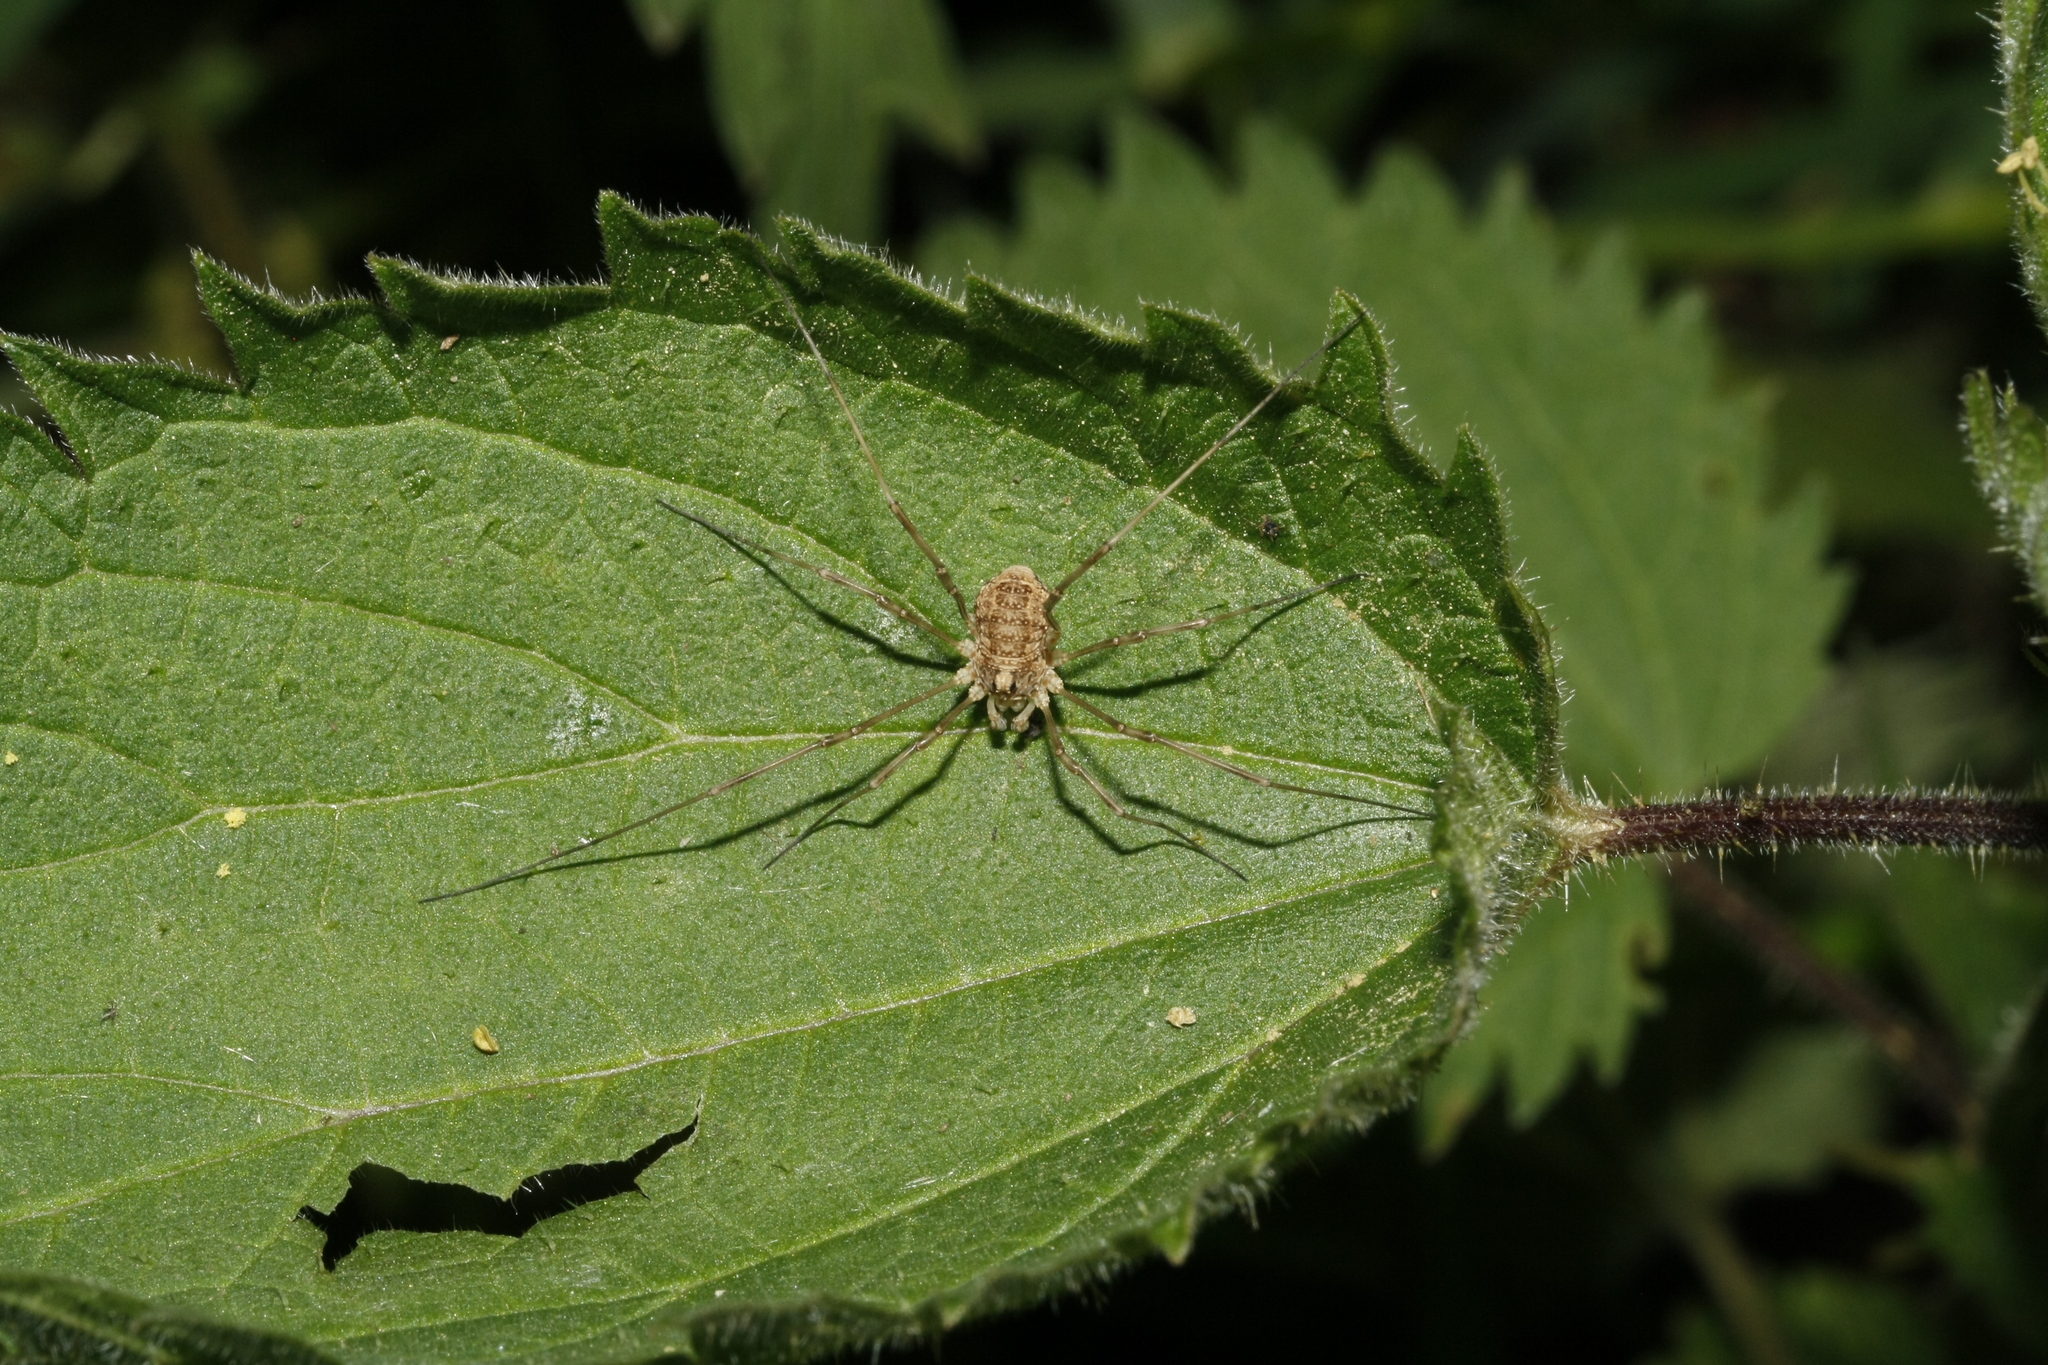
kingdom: Animalia
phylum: Arthropoda
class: Arachnida
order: Opiliones
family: Phalangiidae
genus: Rilaena
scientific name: Rilaena triangularis
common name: Spring harvestman
